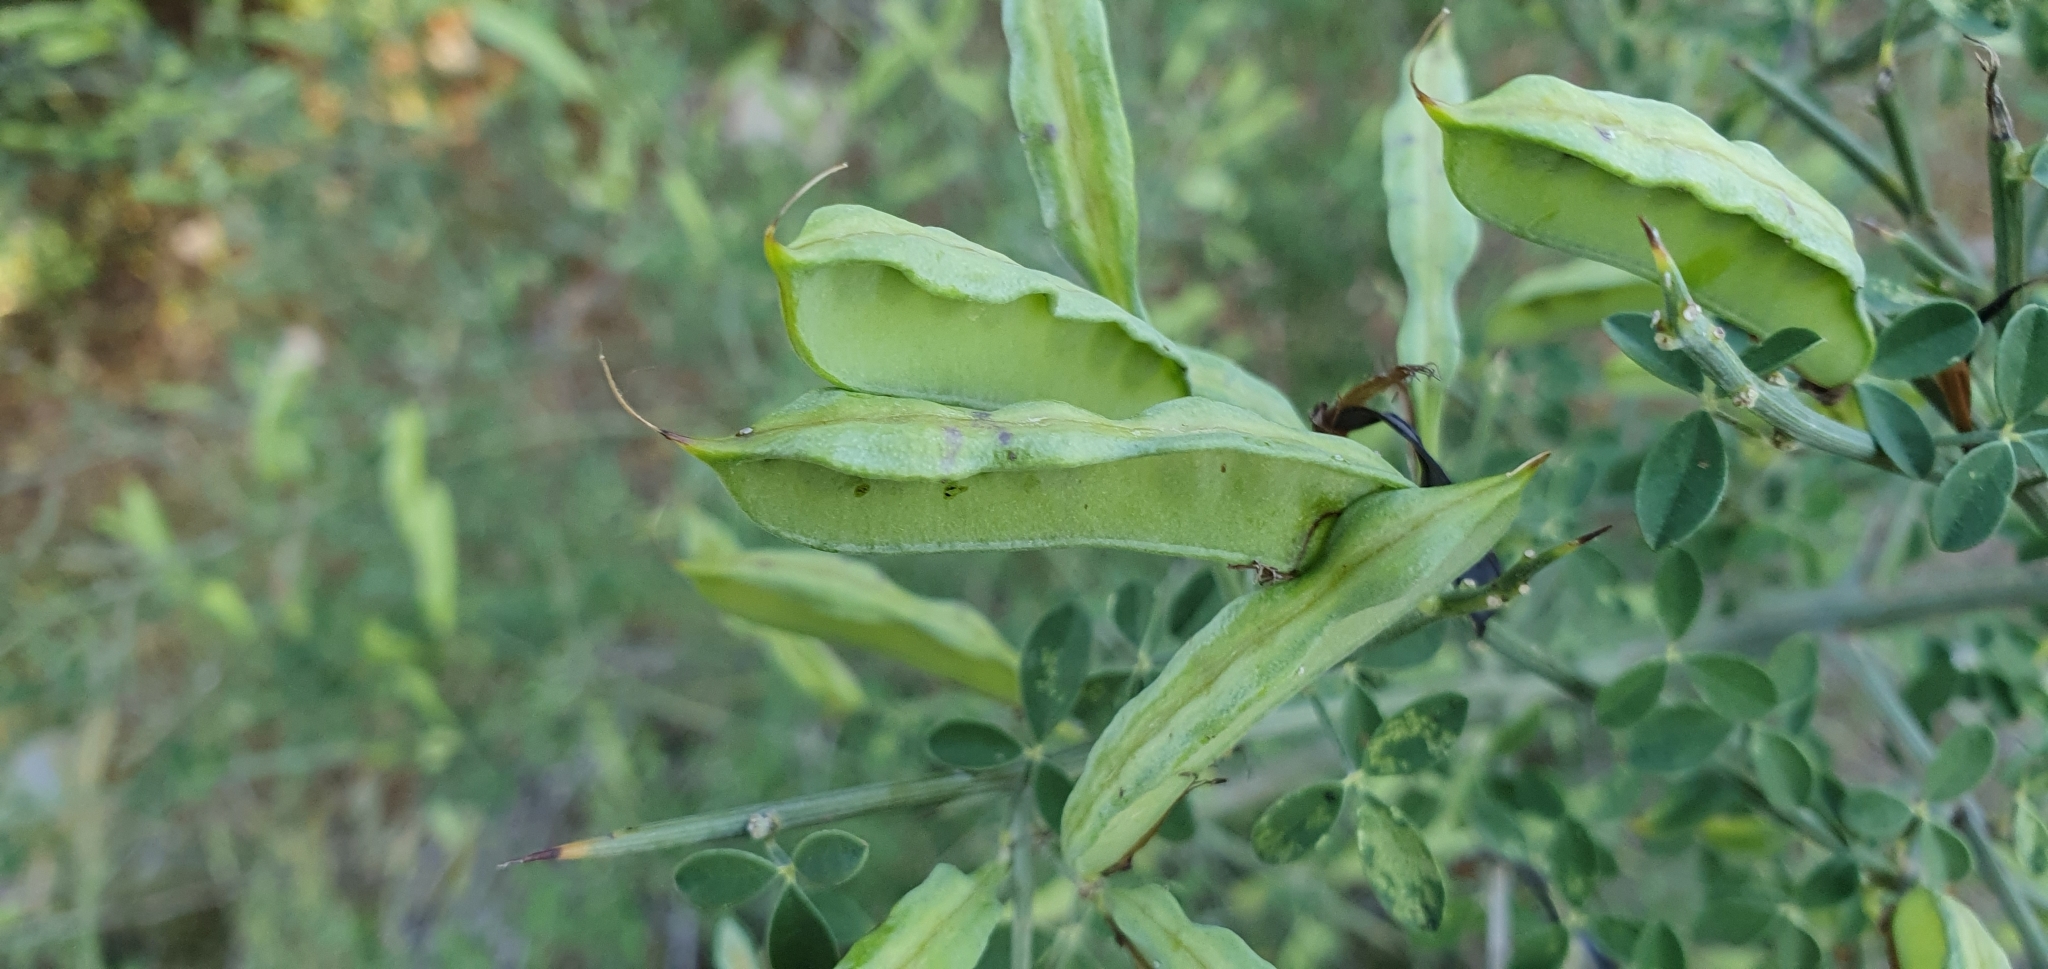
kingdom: Plantae
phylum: Tracheophyta
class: Magnoliopsida
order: Fabales
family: Fabaceae
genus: Calicotome
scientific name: Calicotome spinosa
